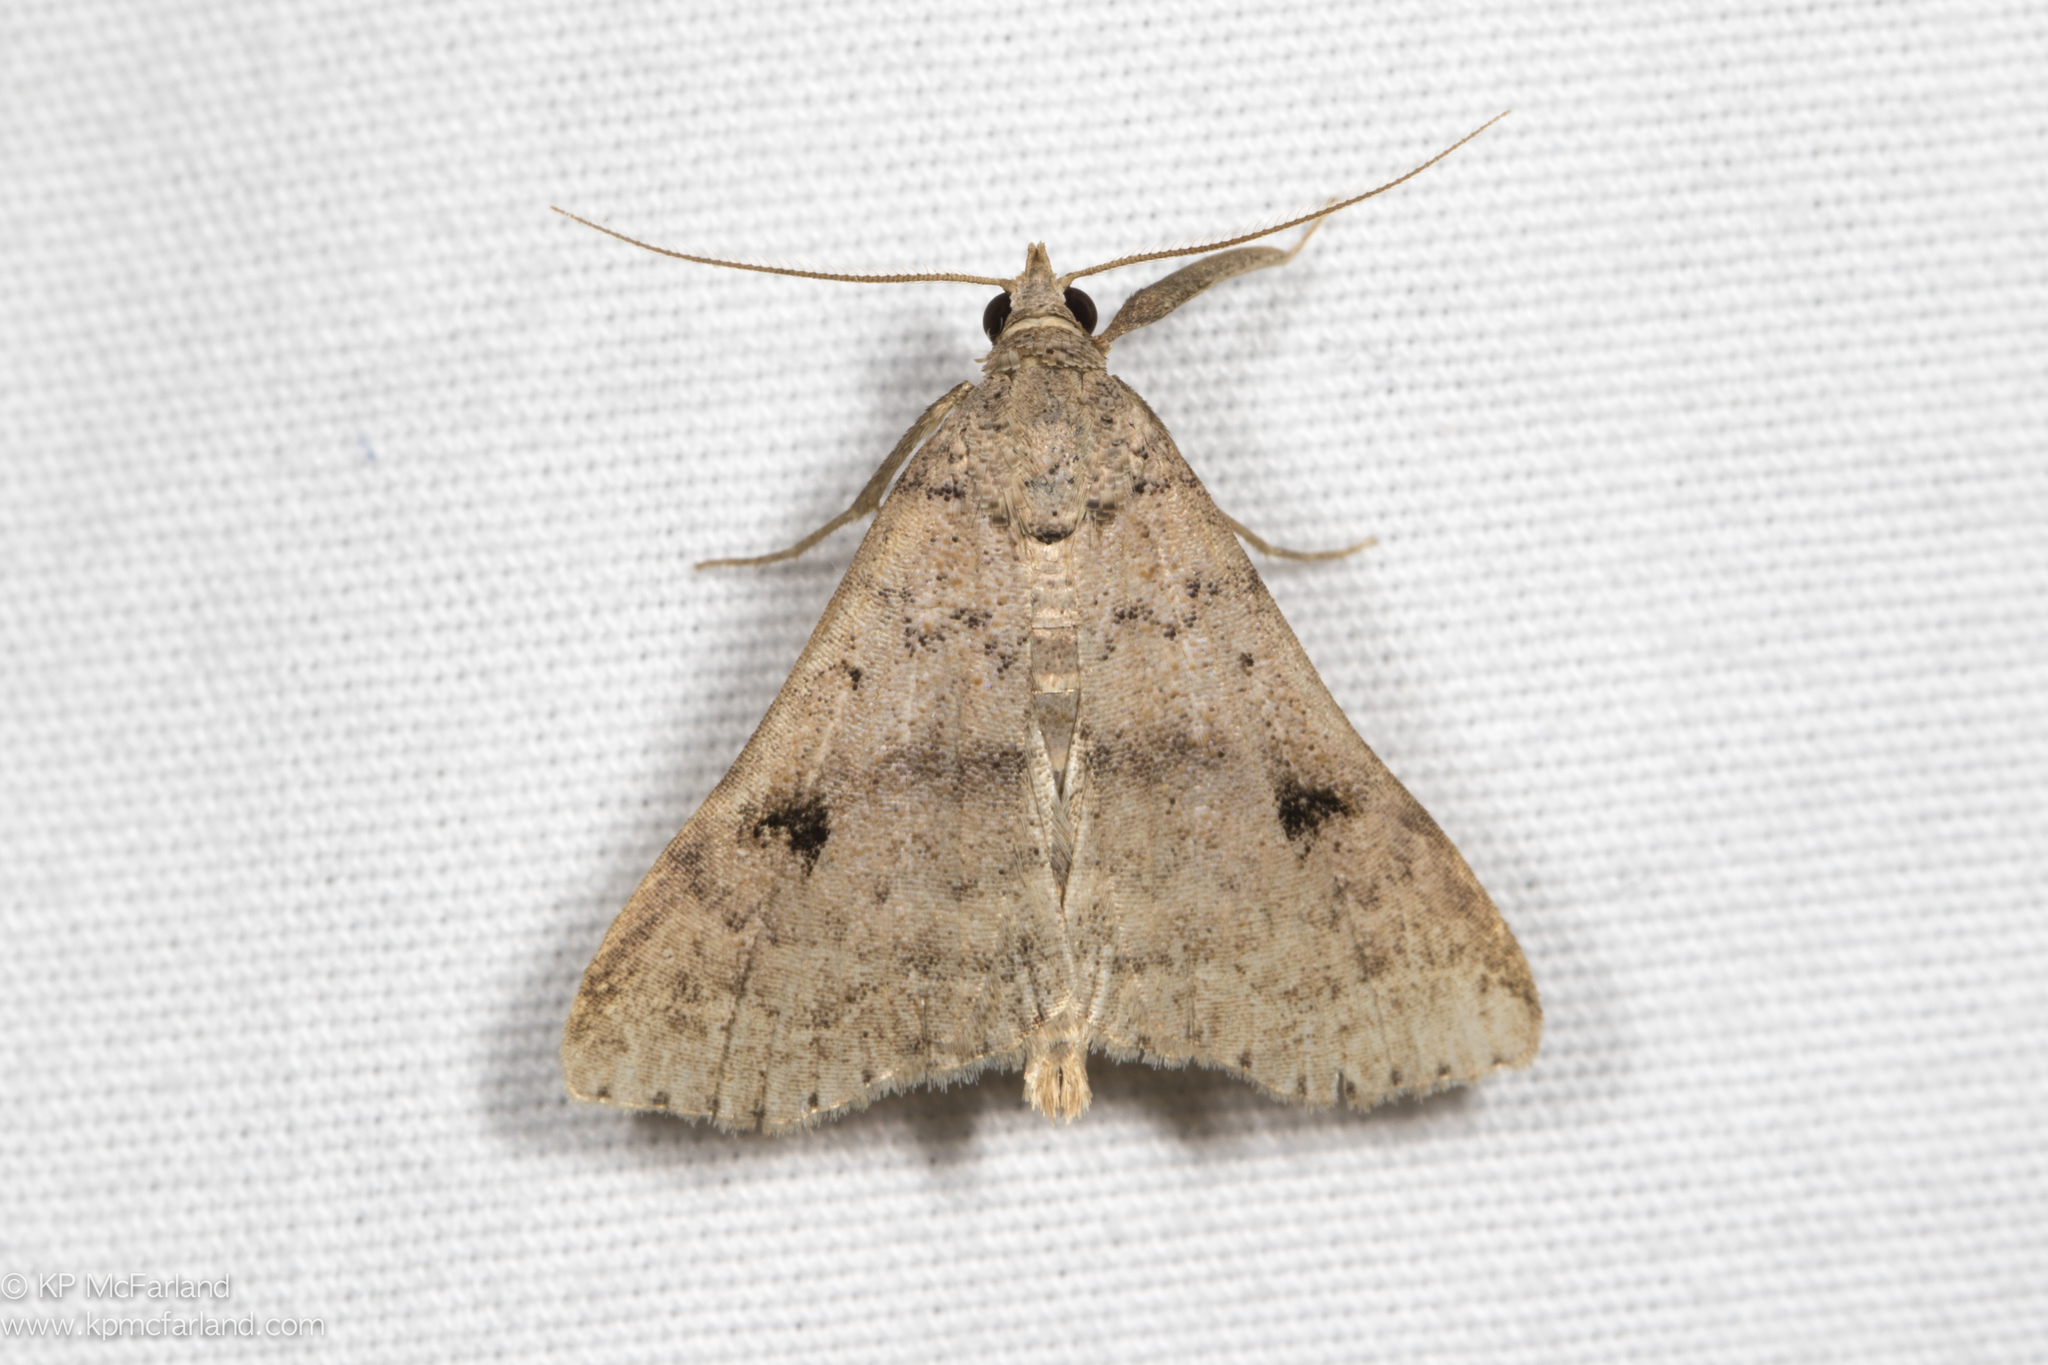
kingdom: Animalia
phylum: Arthropoda
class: Insecta
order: Lepidoptera
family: Erebidae
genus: Bleptina
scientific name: Bleptina caradrinalis
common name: Bent-winged owlet
